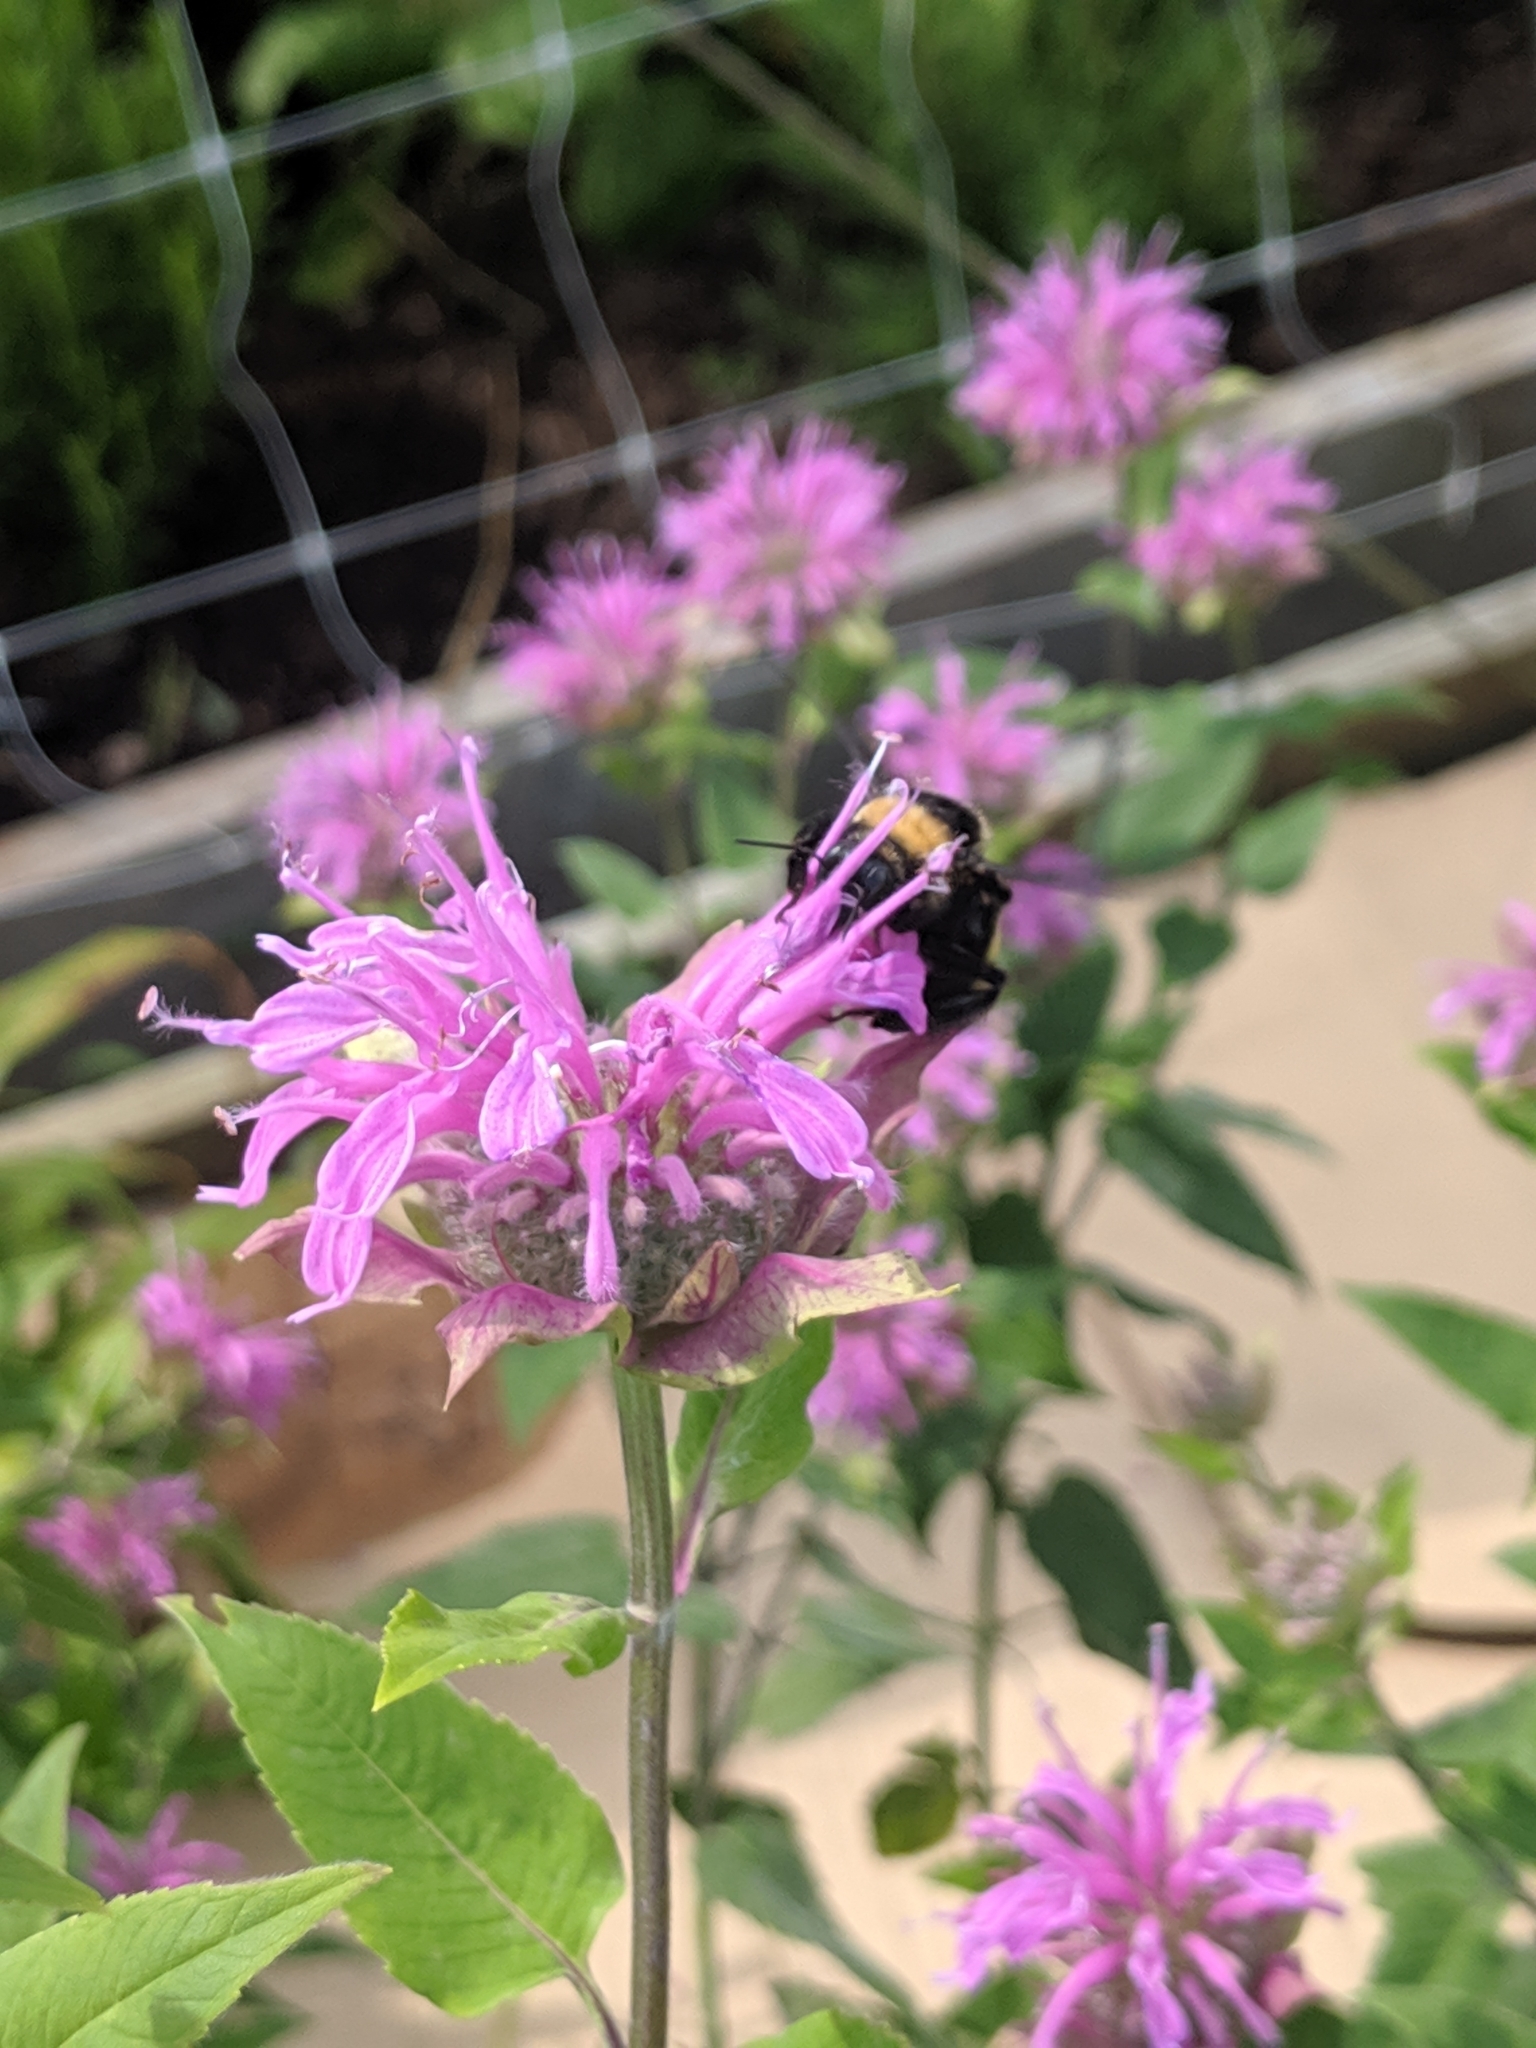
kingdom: Animalia
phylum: Arthropoda
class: Insecta
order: Hymenoptera
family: Apidae
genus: Bombus
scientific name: Bombus auricomus
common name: Black and gold bumble bee
